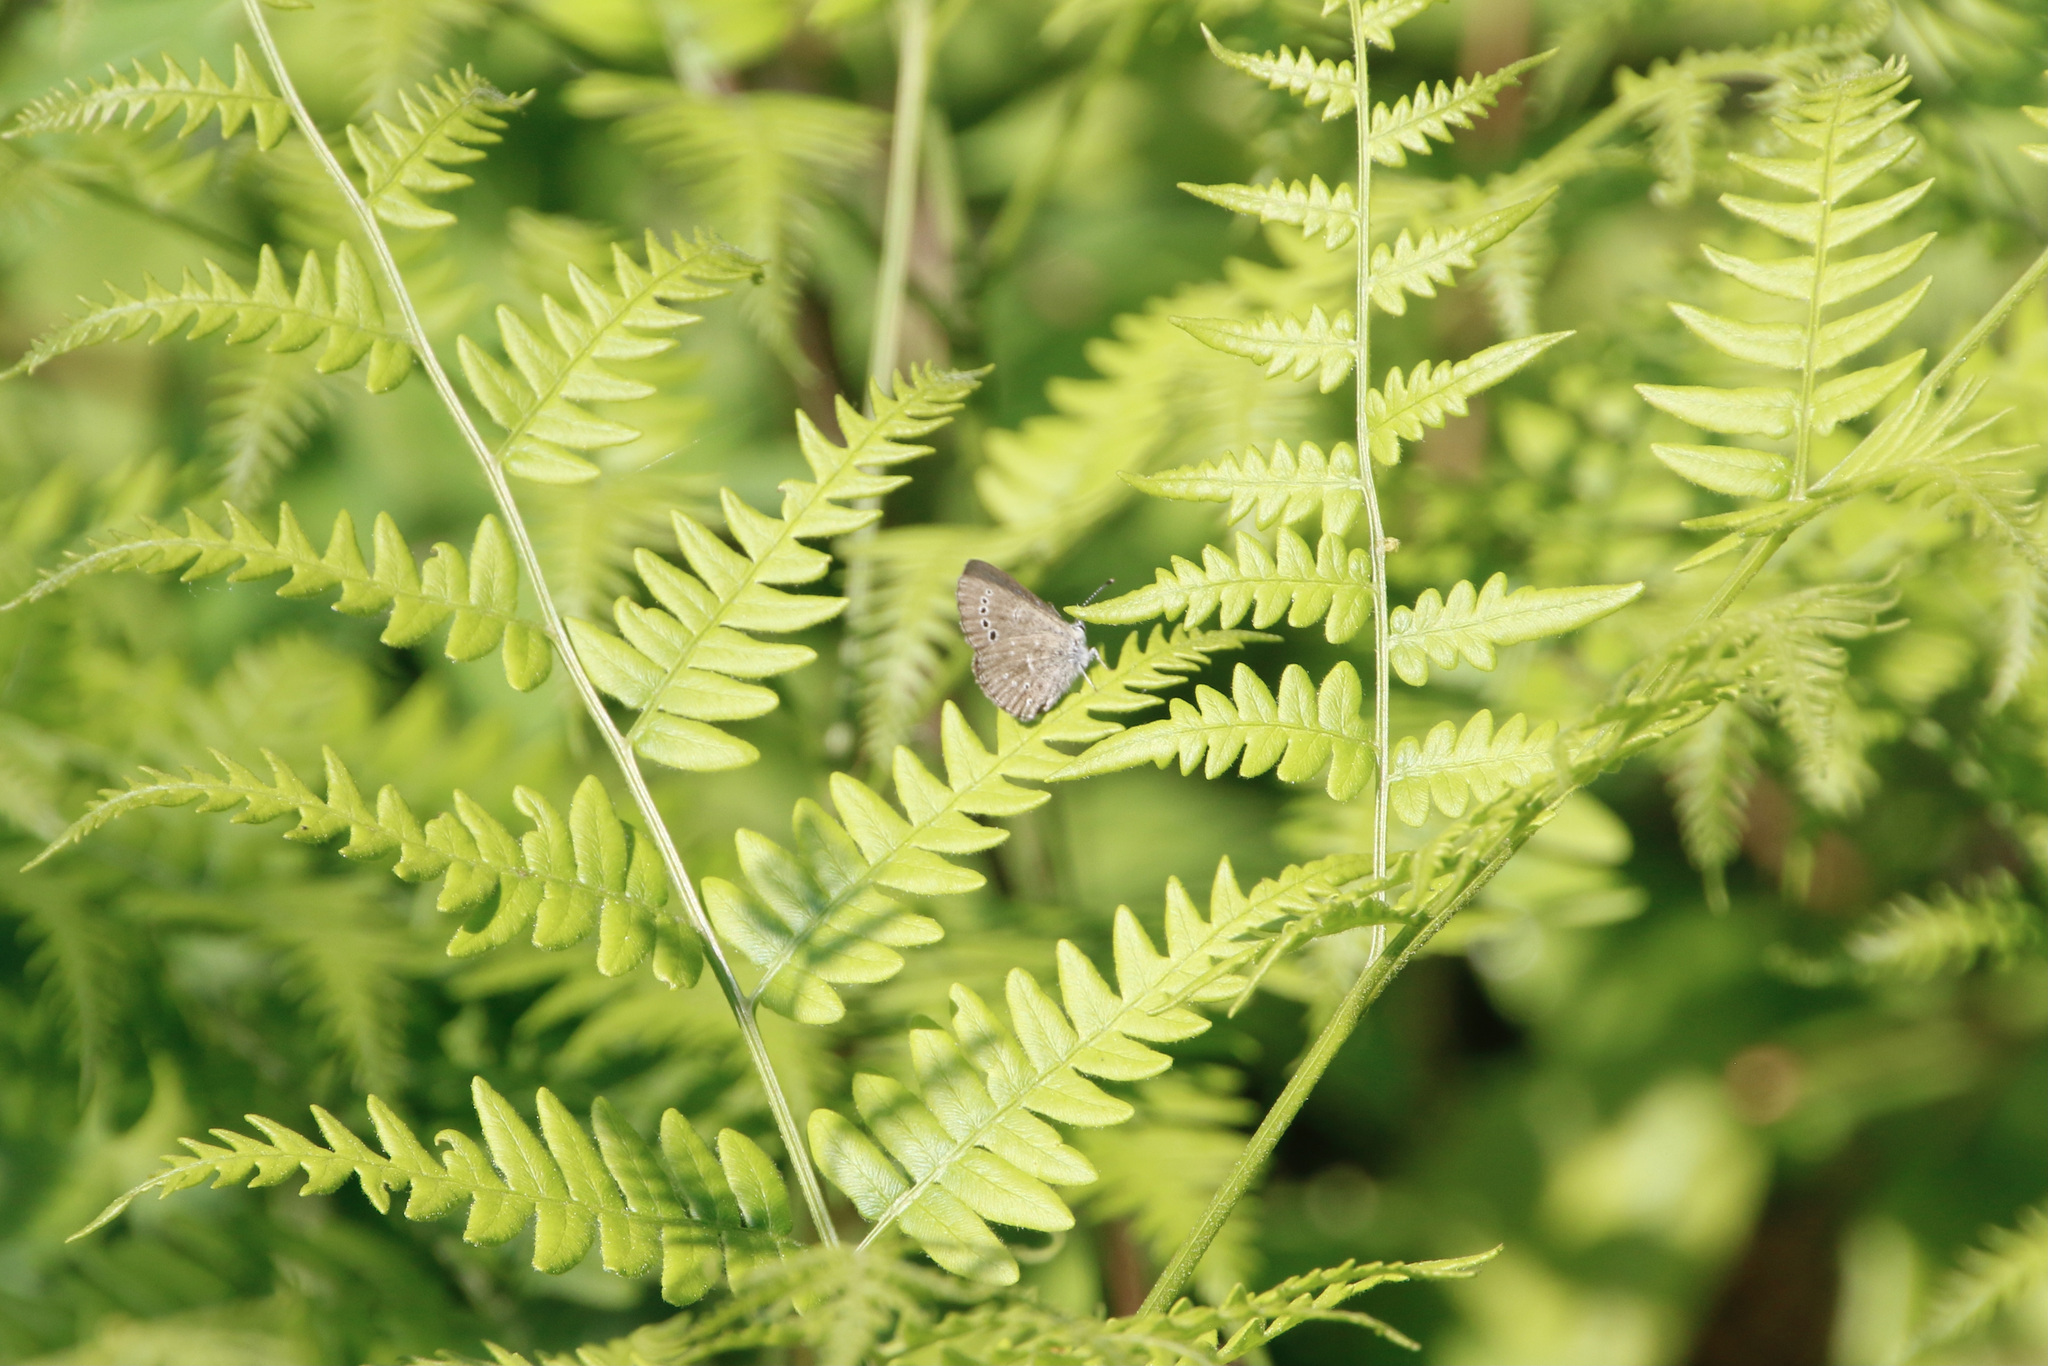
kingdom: Animalia
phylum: Arthropoda
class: Insecta
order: Lepidoptera
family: Lycaenidae
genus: Glaucopsyche
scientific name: Glaucopsyche lygdamus
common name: Silvery blue
